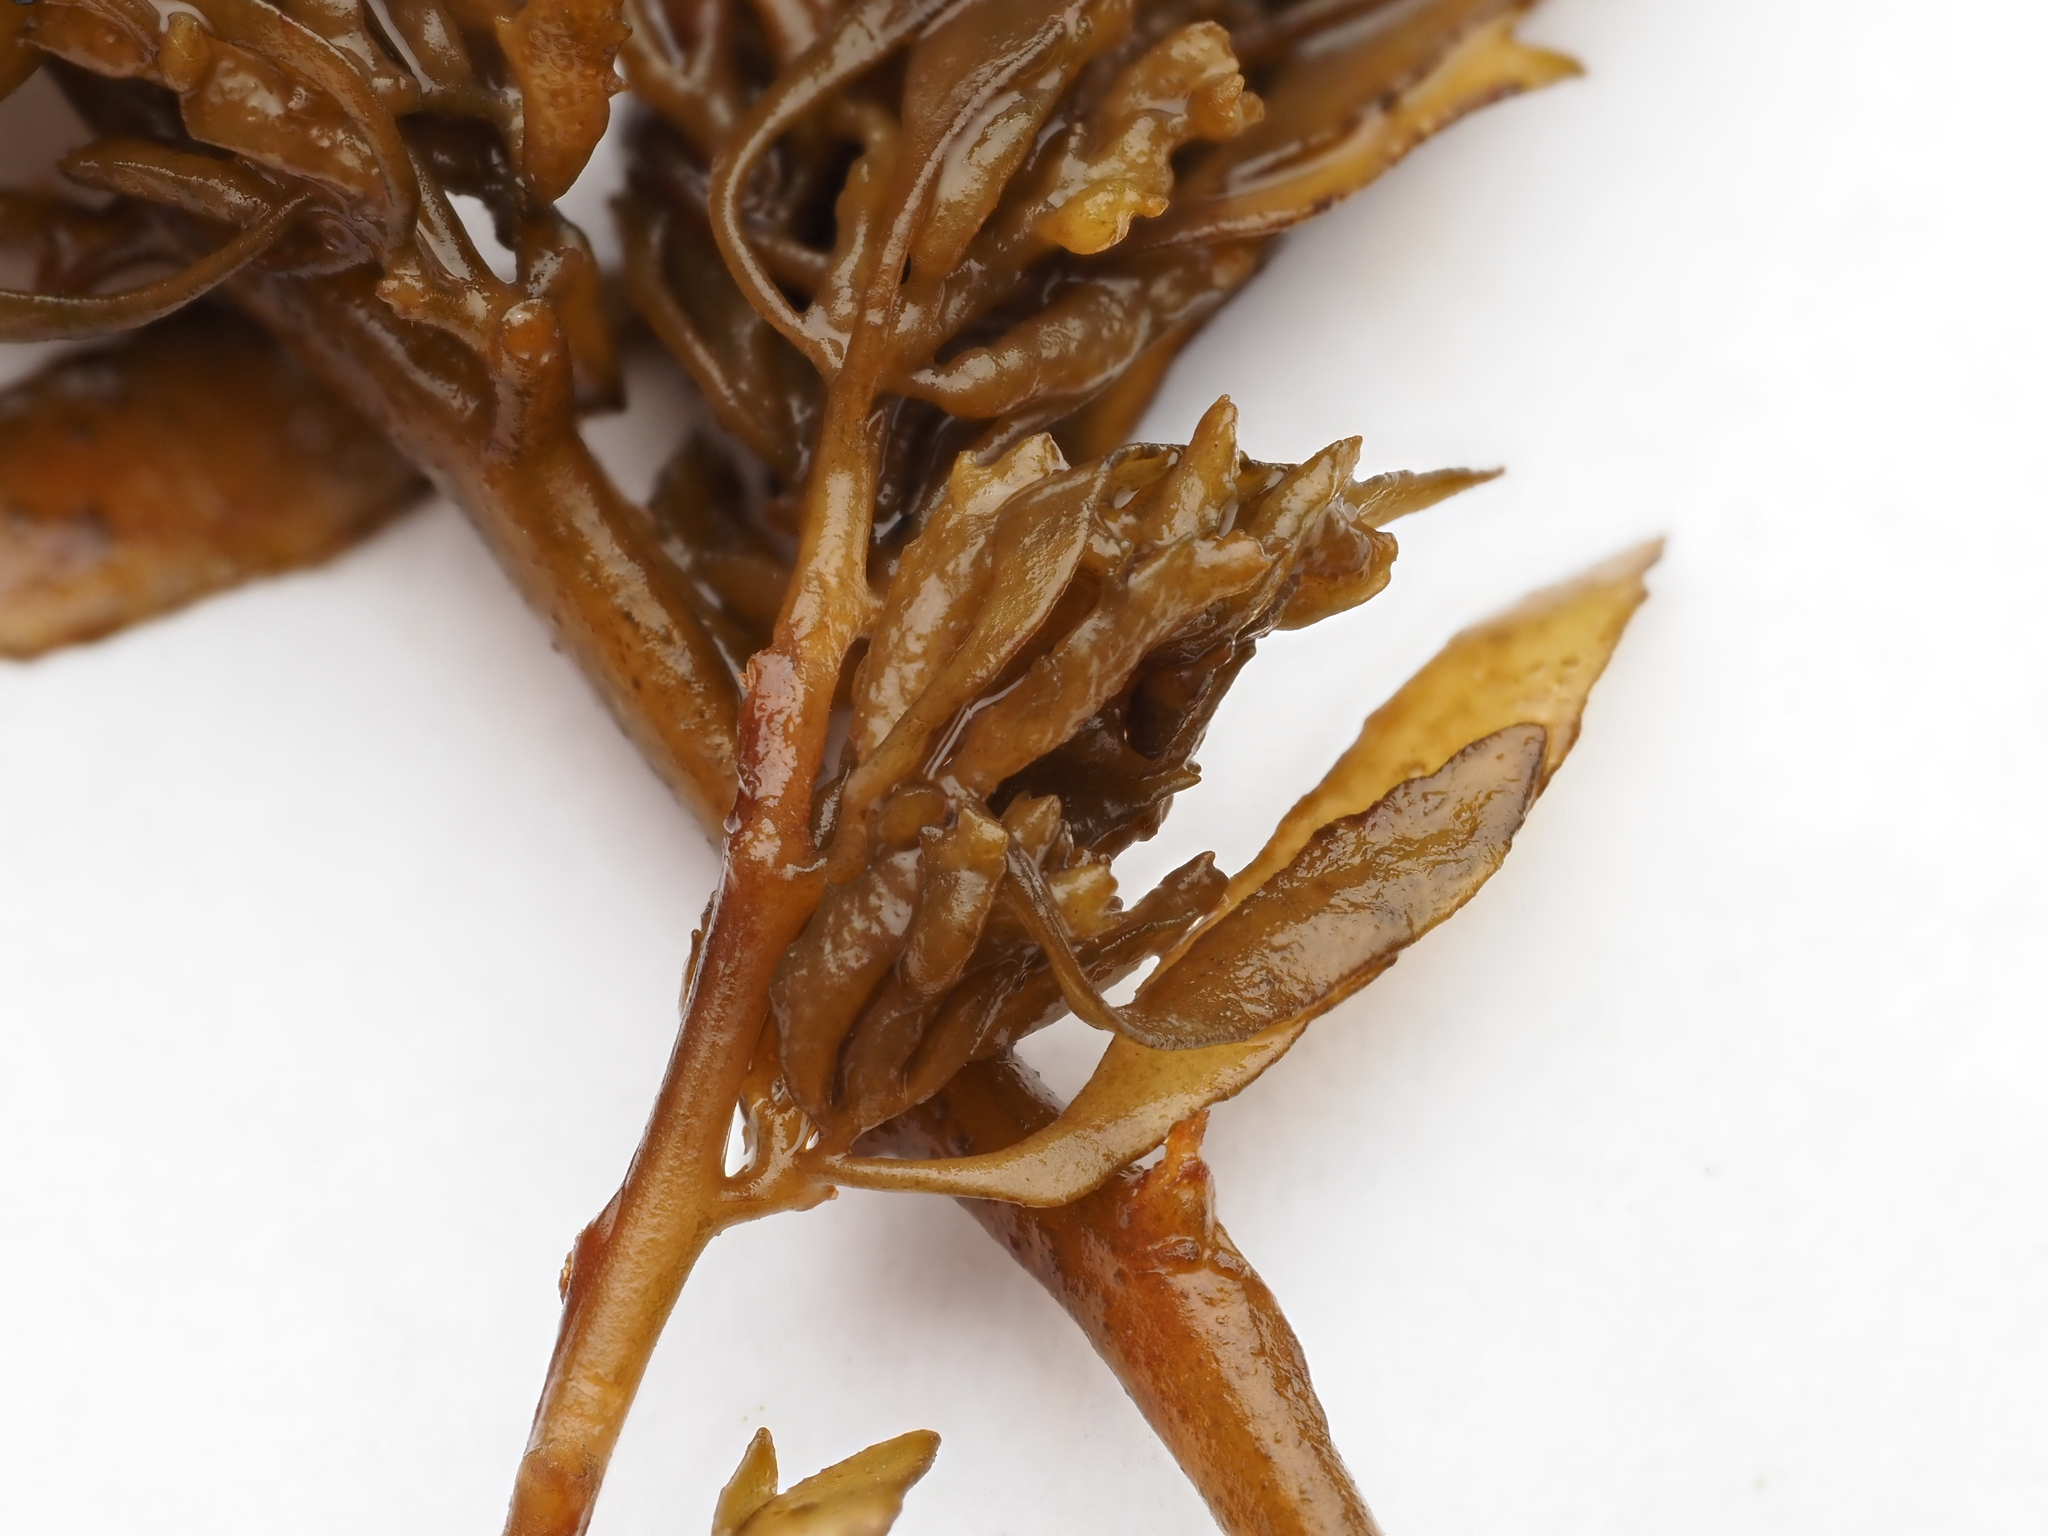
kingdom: Chromista
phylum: Ochrophyta
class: Phaeophyceae
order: Fucales
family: Sargassaceae
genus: Sargassum
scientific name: Sargassum sinclairii
